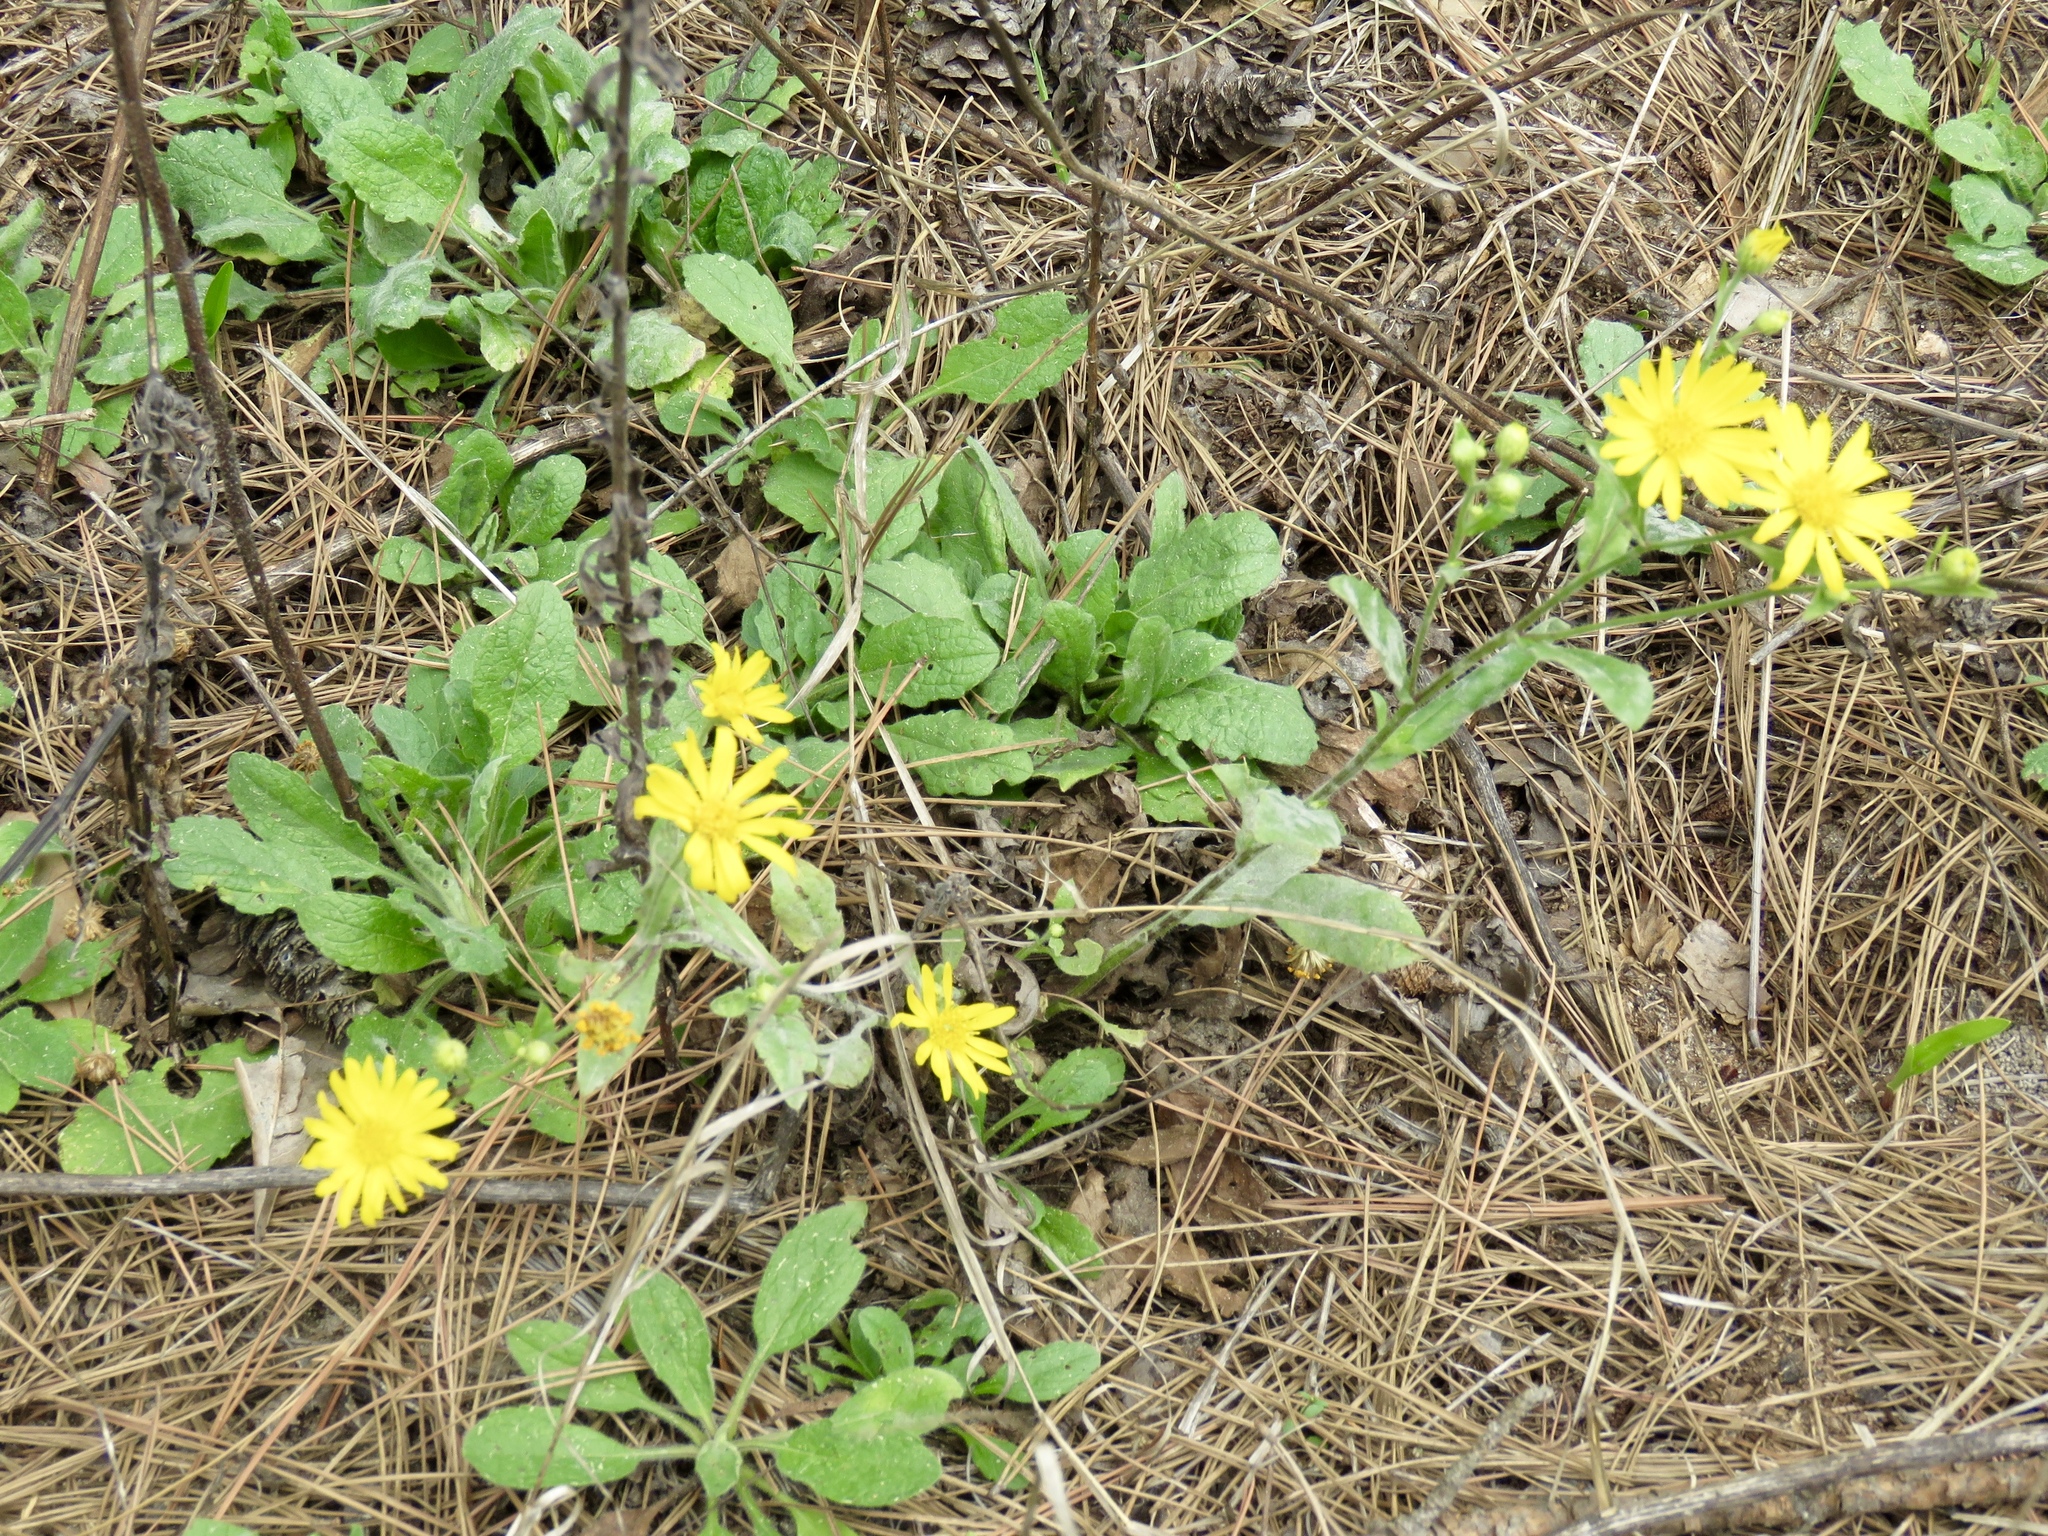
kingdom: Plantae
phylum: Tracheophyta
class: Magnoliopsida
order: Asterales
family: Asteraceae
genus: Heterotheca
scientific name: Heterotheca subaxillaris
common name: Camphorweed
